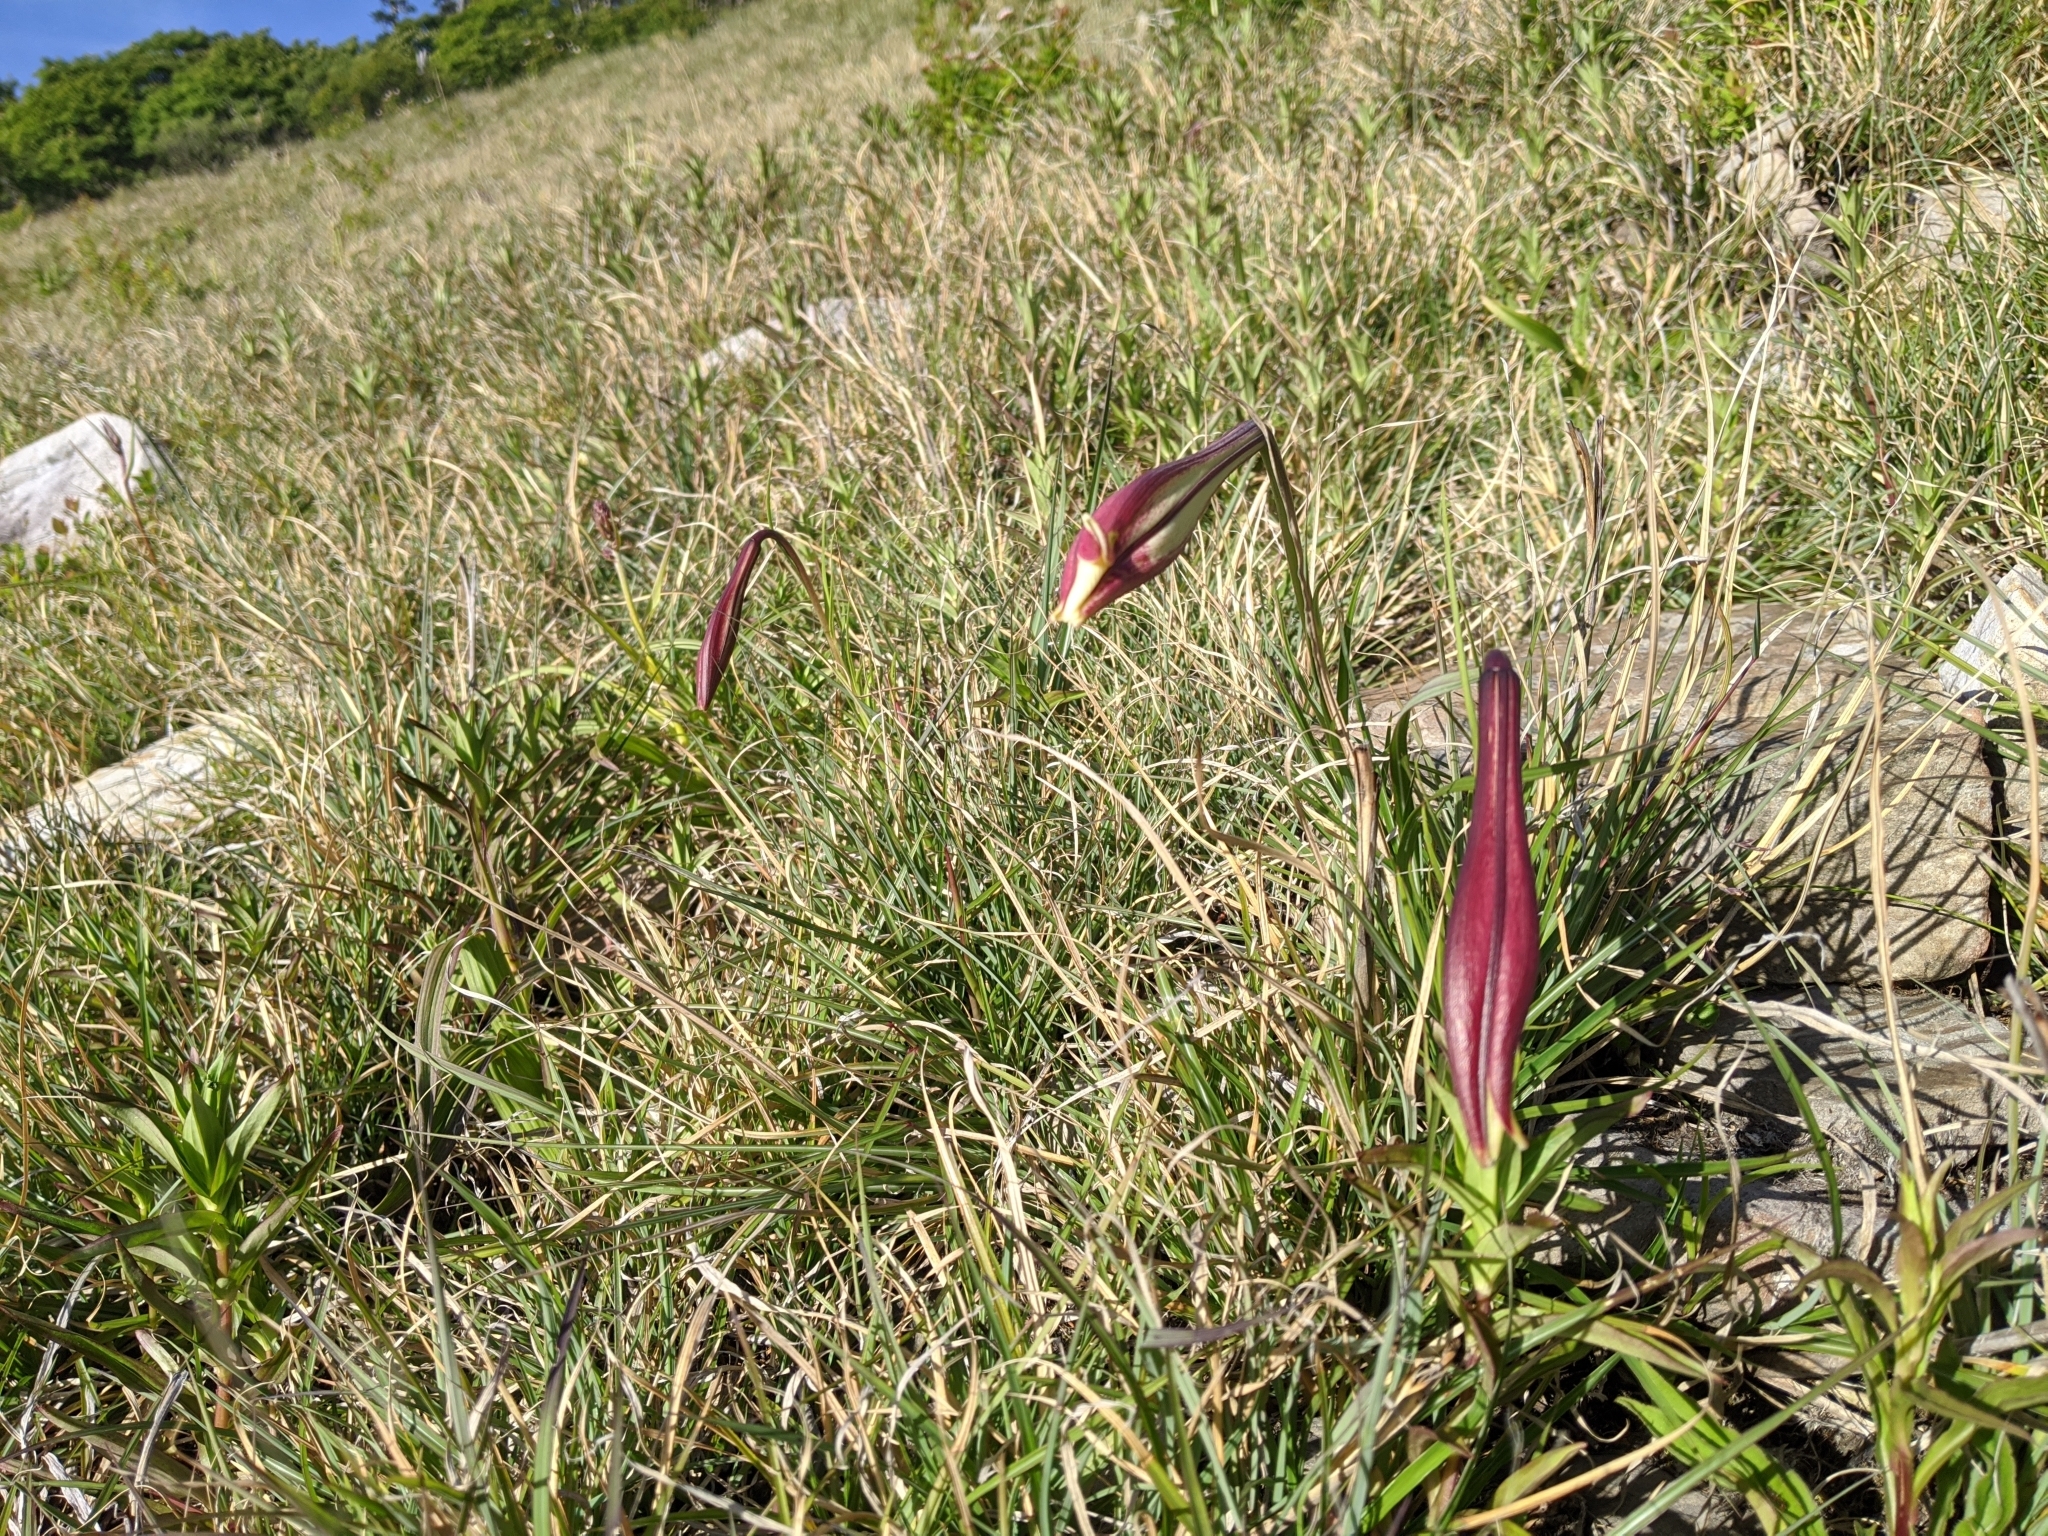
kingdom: Plantae
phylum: Tracheophyta
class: Liliopsida
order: Liliales
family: Liliaceae
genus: Lilium
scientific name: Lilium formosanum
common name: Formosa lily
